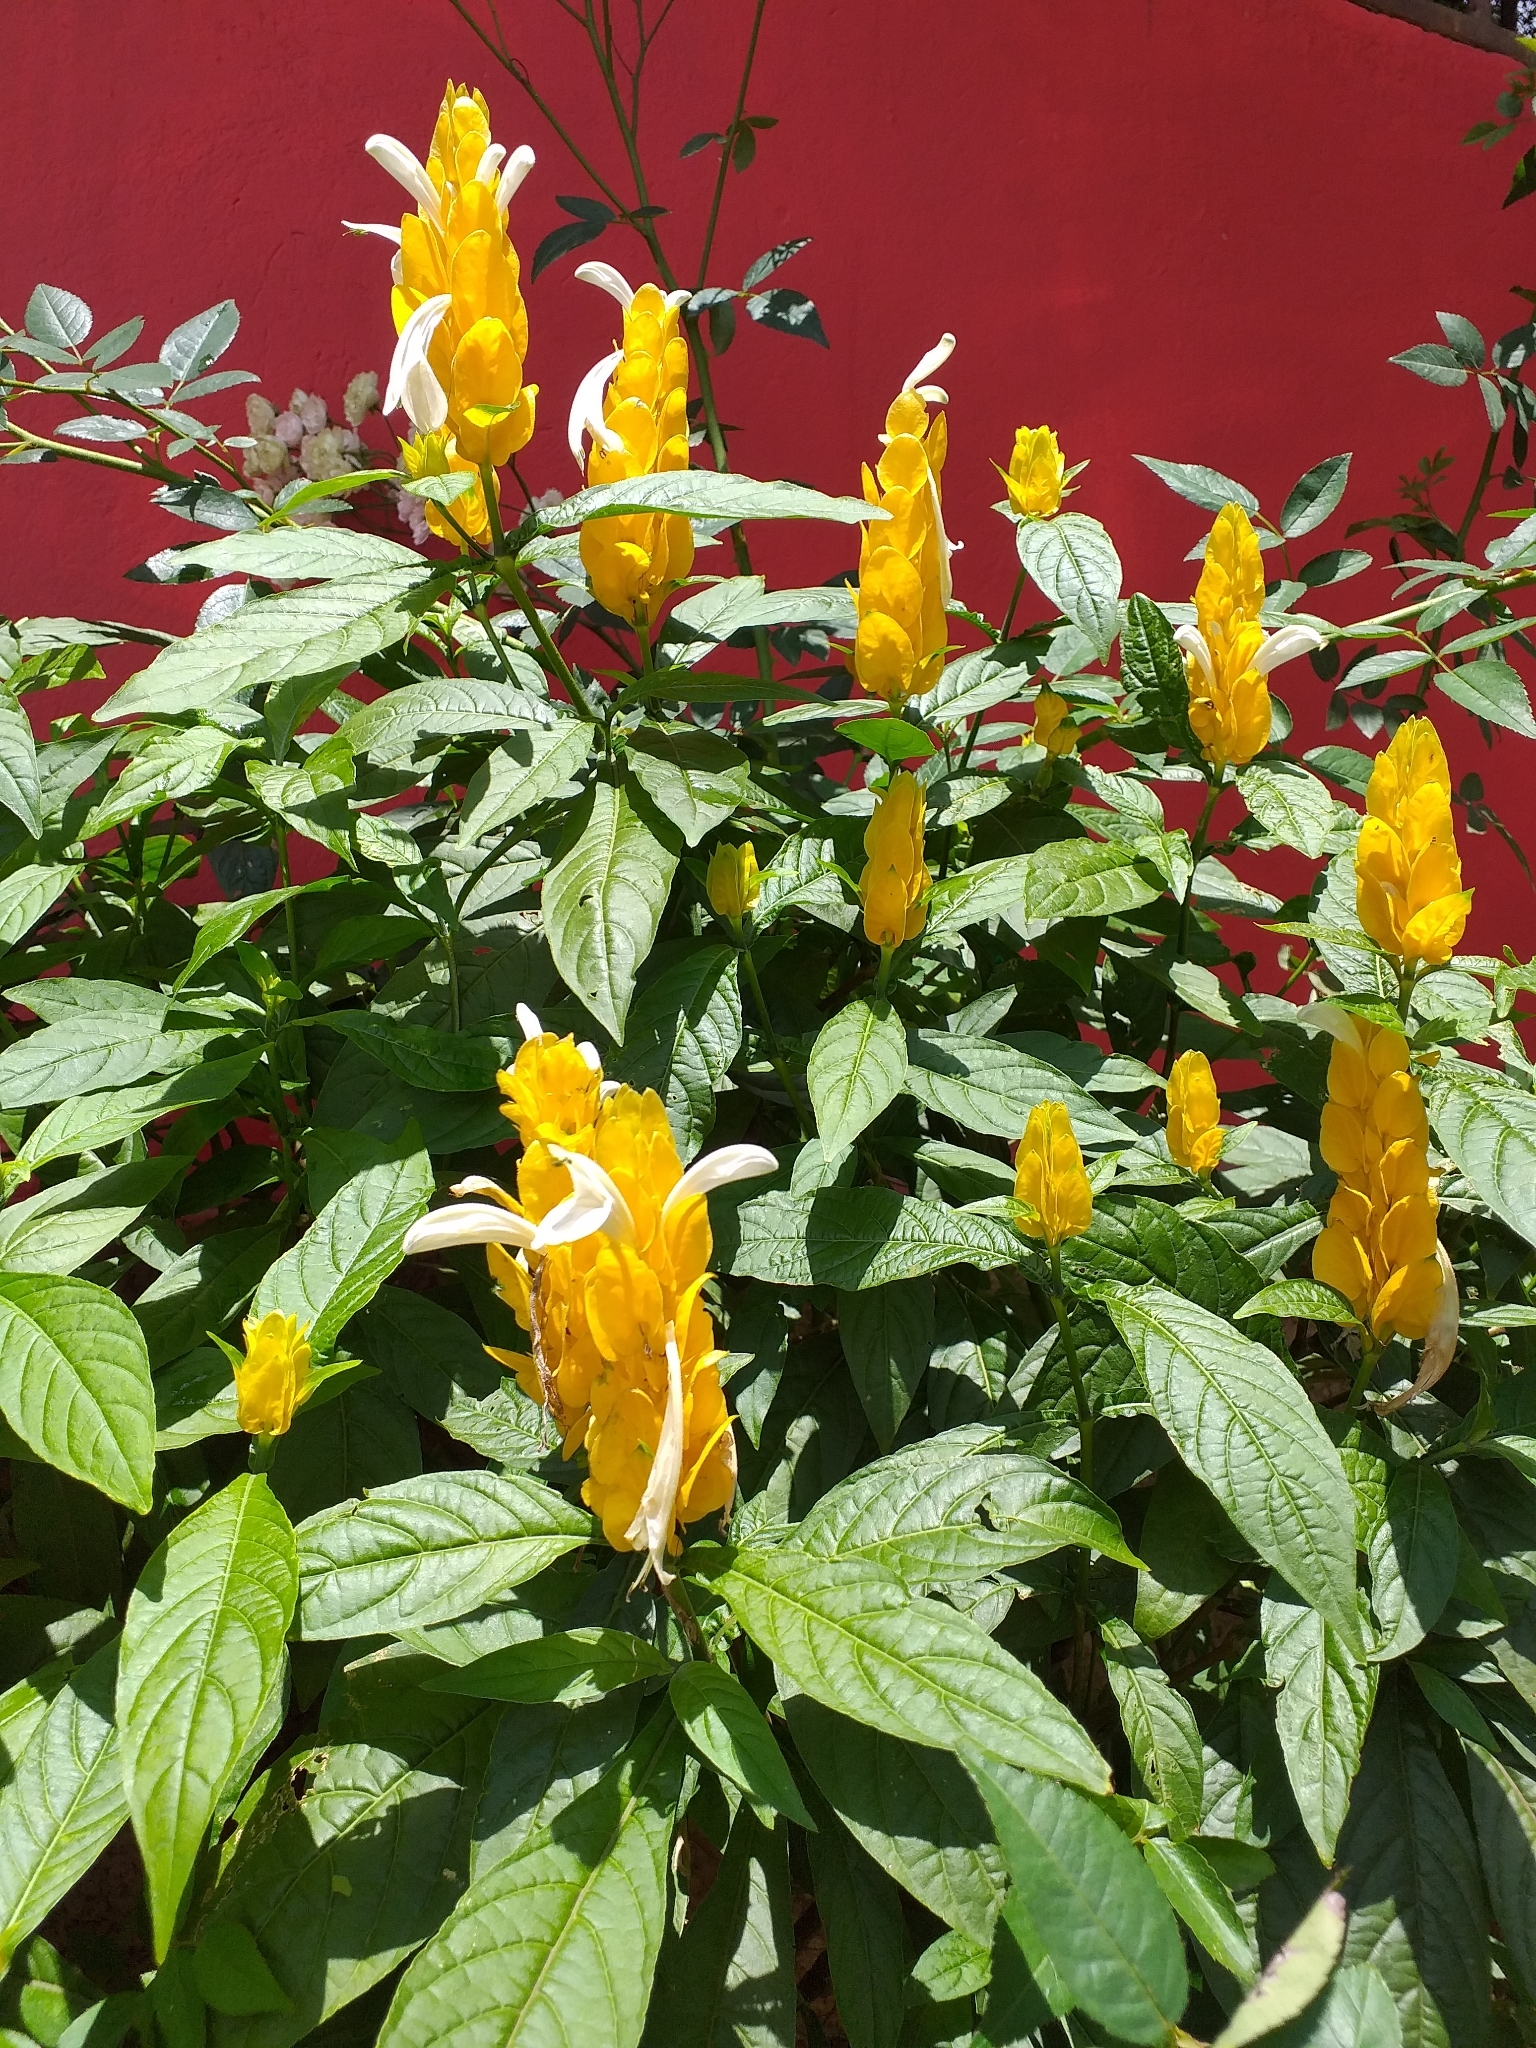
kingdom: Plantae
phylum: Tracheophyta
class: Magnoliopsida
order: Lamiales
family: Acanthaceae
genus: Pachystachys
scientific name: Pachystachys lutea
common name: Golden shrimp-plant
